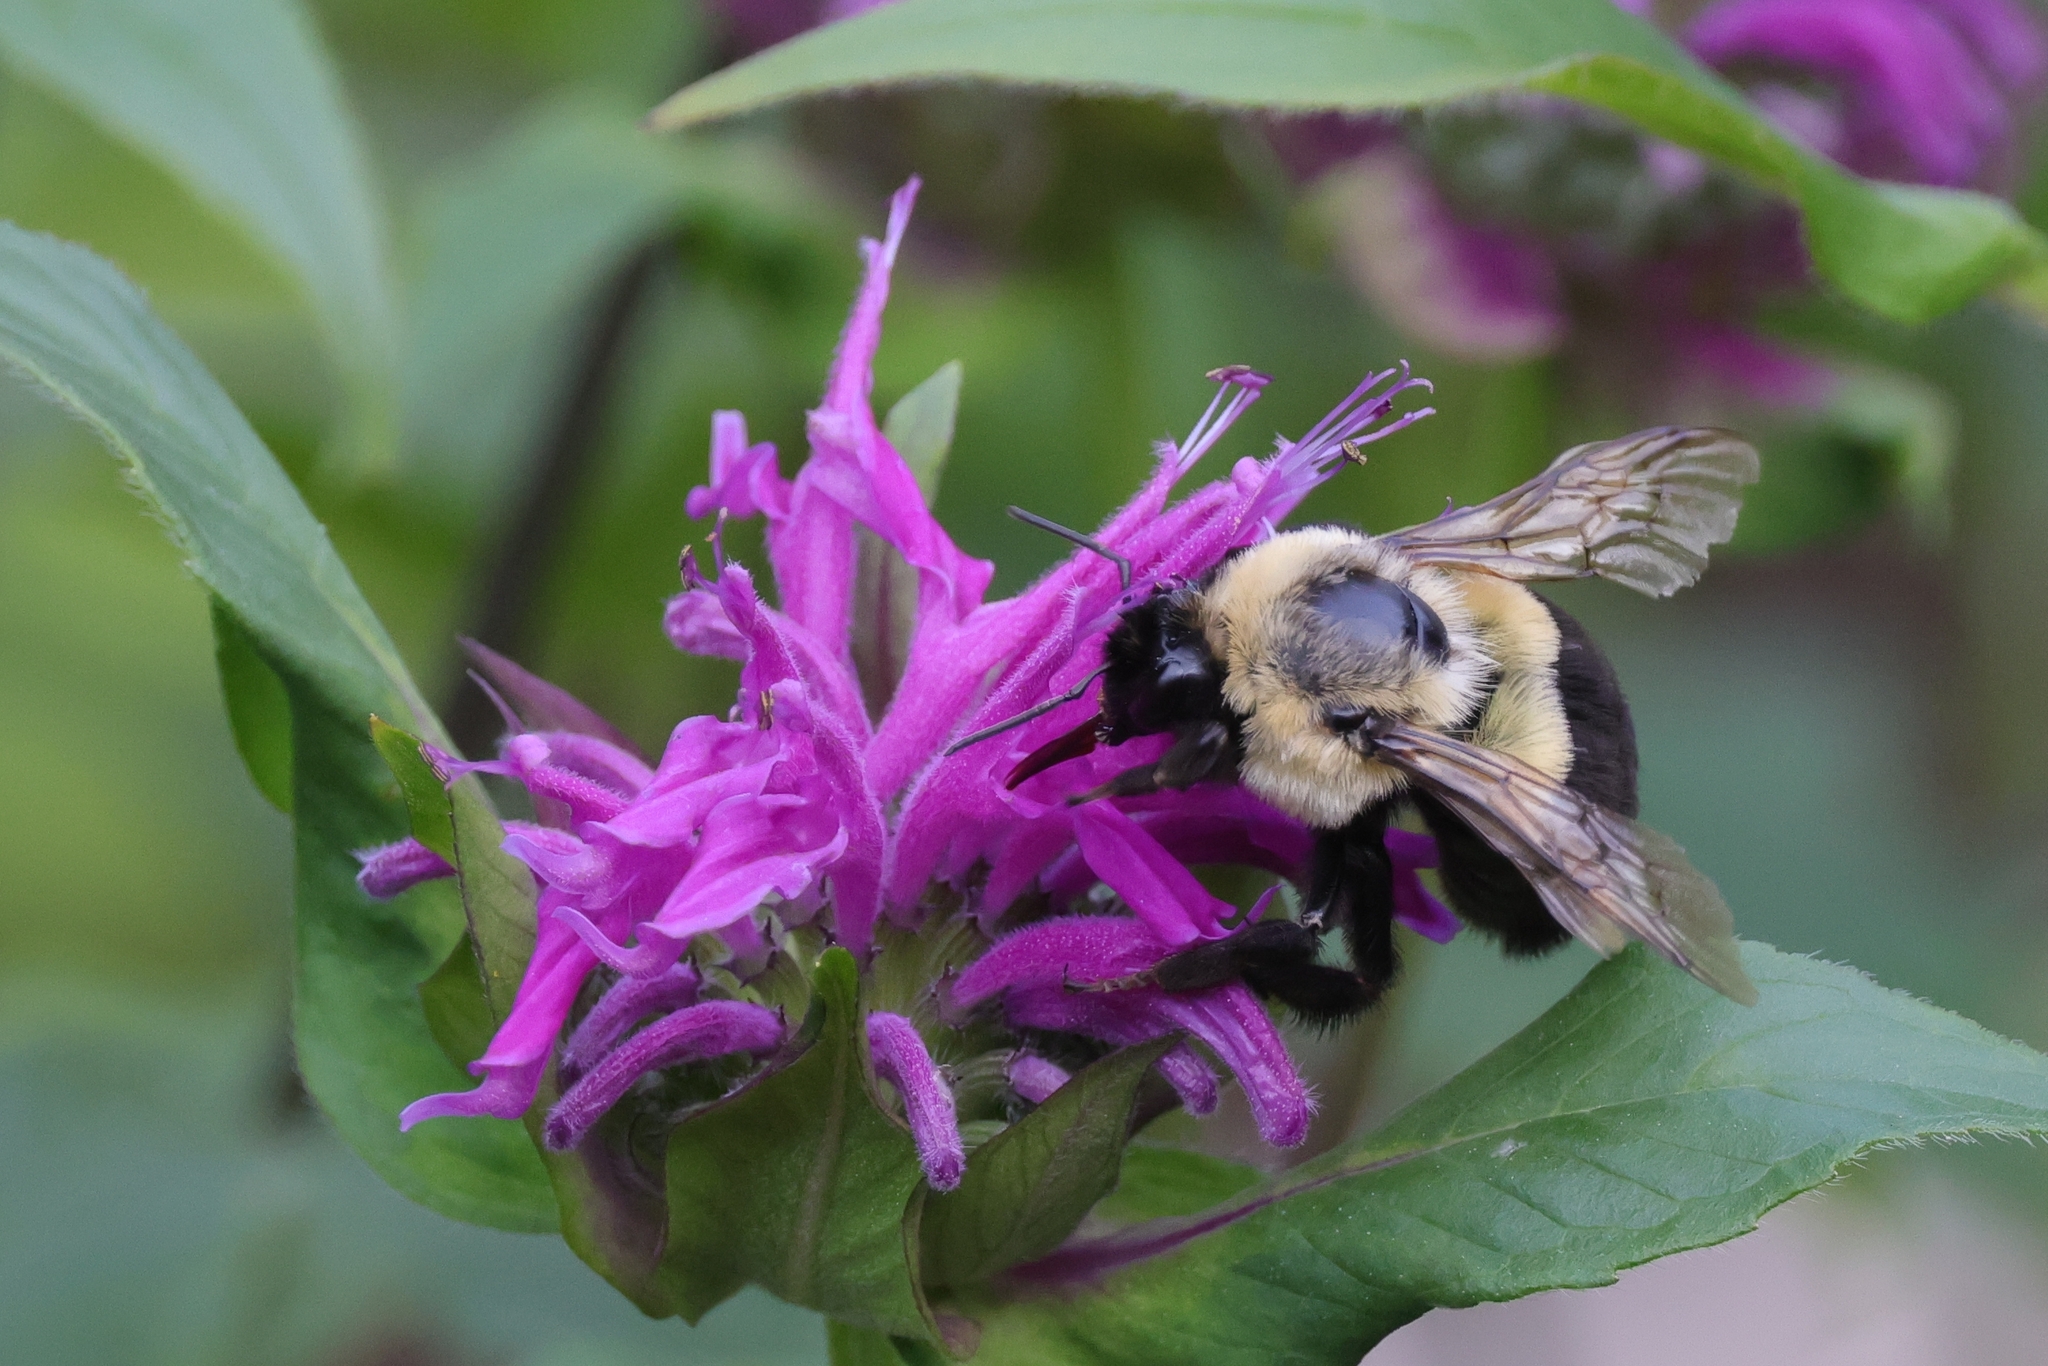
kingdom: Animalia
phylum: Arthropoda
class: Insecta
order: Hymenoptera
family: Apidae
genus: Bombus
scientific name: Bombus impatiens
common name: Common eastern bumble bee
